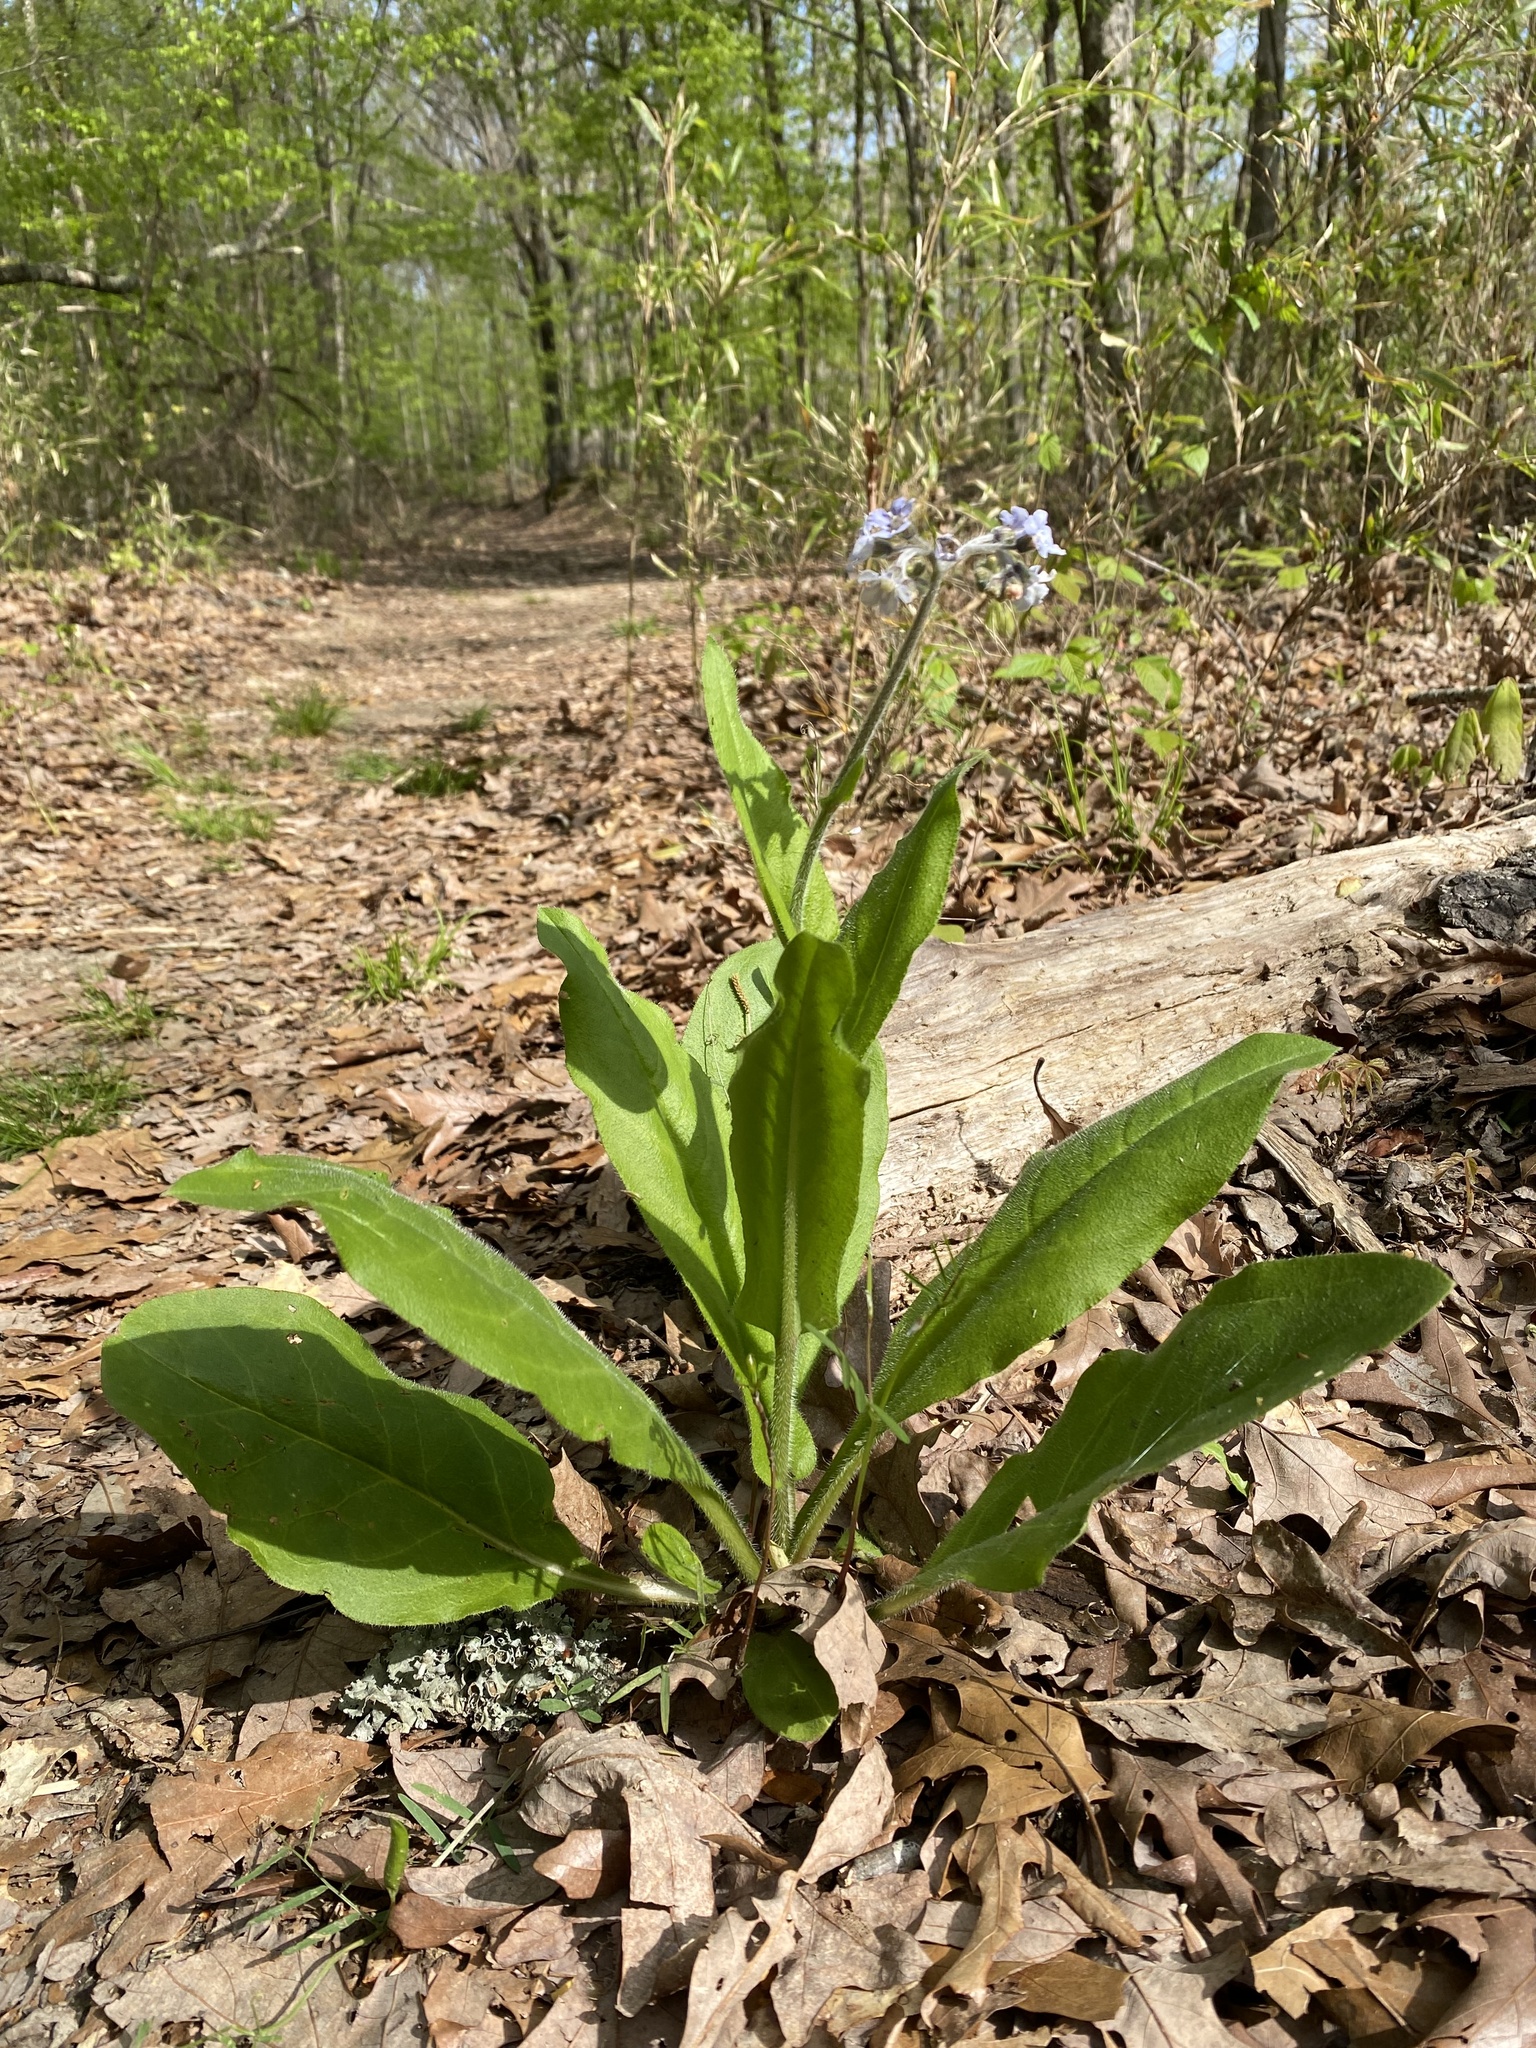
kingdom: Plantae
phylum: Tracheophyta
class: Magnoliopsida
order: Boraginales
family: Boraginaceae
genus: Andersonglossum
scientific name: Andersonglossum virginianum
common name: Wild comfrey
